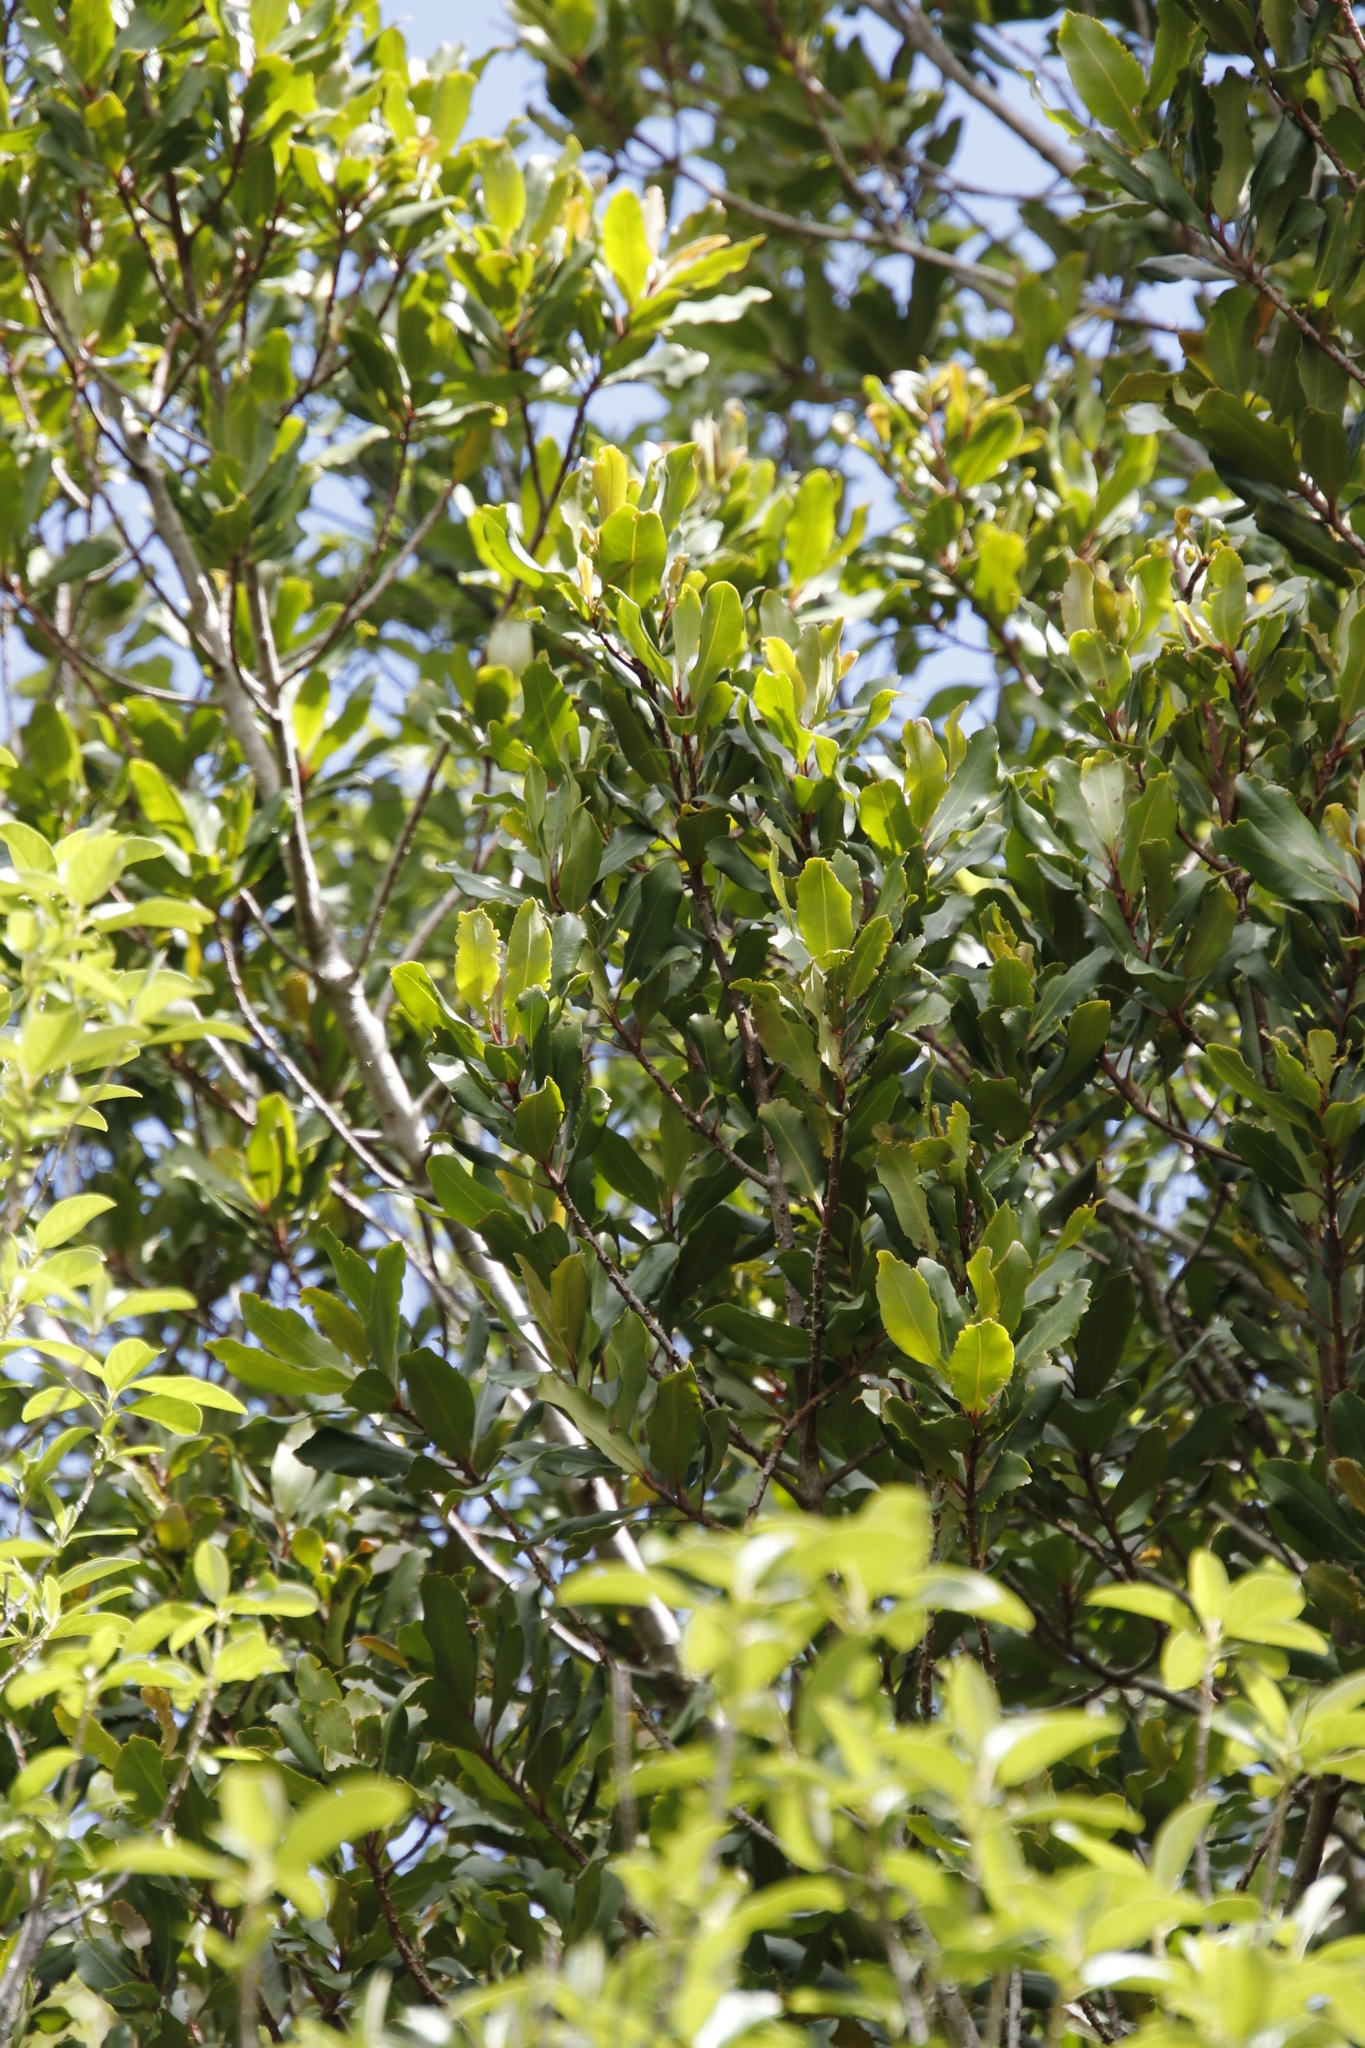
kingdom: Plantae
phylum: Tracheophyta
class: Magnoliopsida
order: Ericales
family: Primulaceae
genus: Myrsine
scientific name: Myrsine melanophloeos
